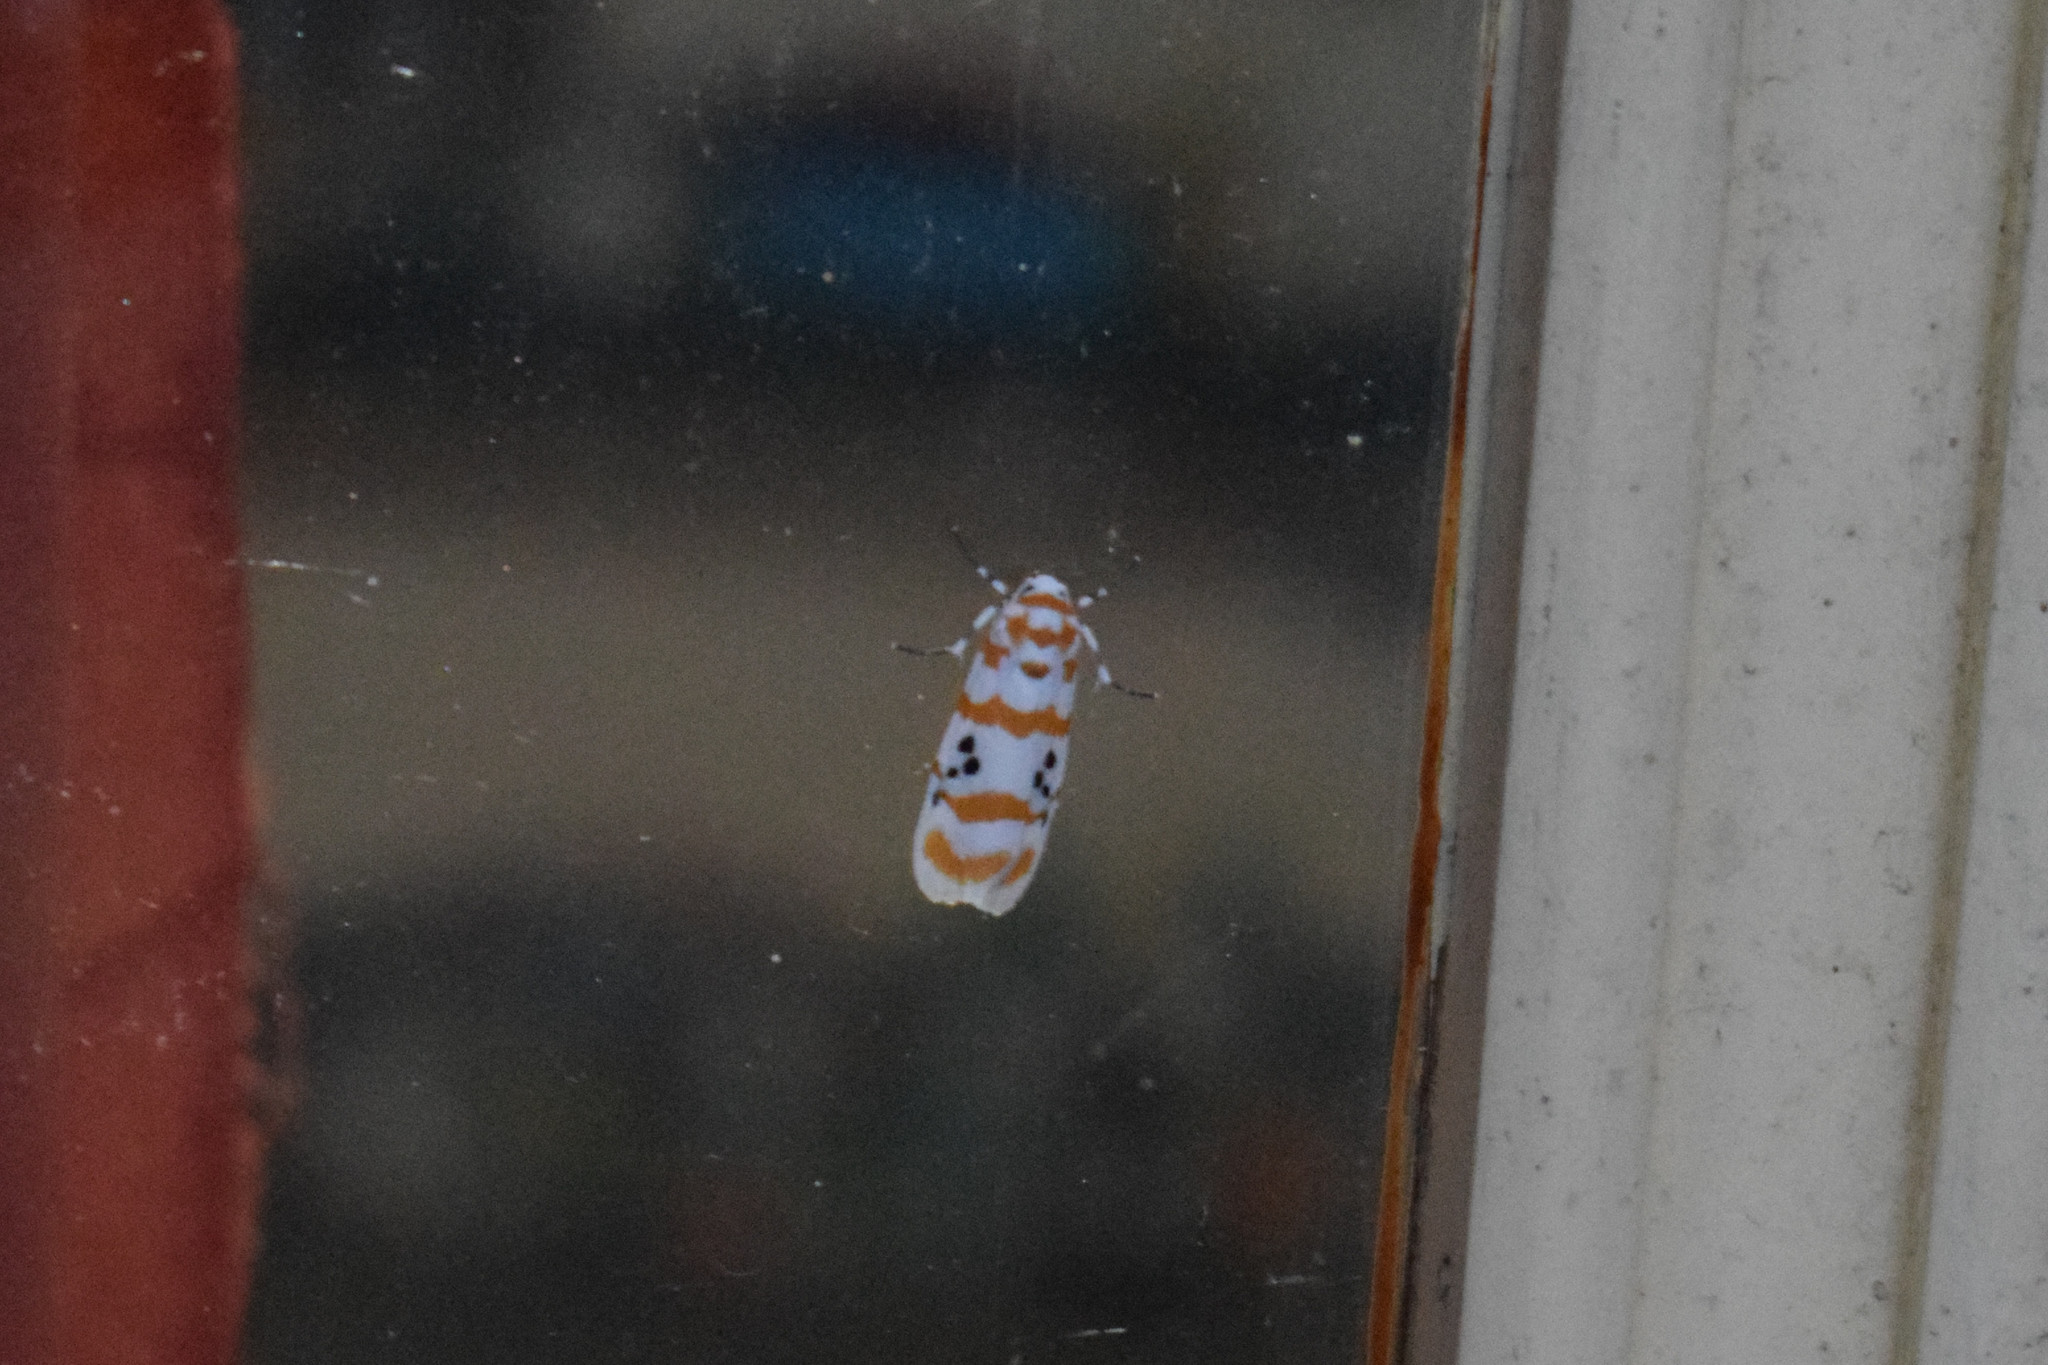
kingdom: Animalia
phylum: Arthropoda
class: Insecta
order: Lepidoptera
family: Erebidae
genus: Cyana
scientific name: Cyana dohertyi
